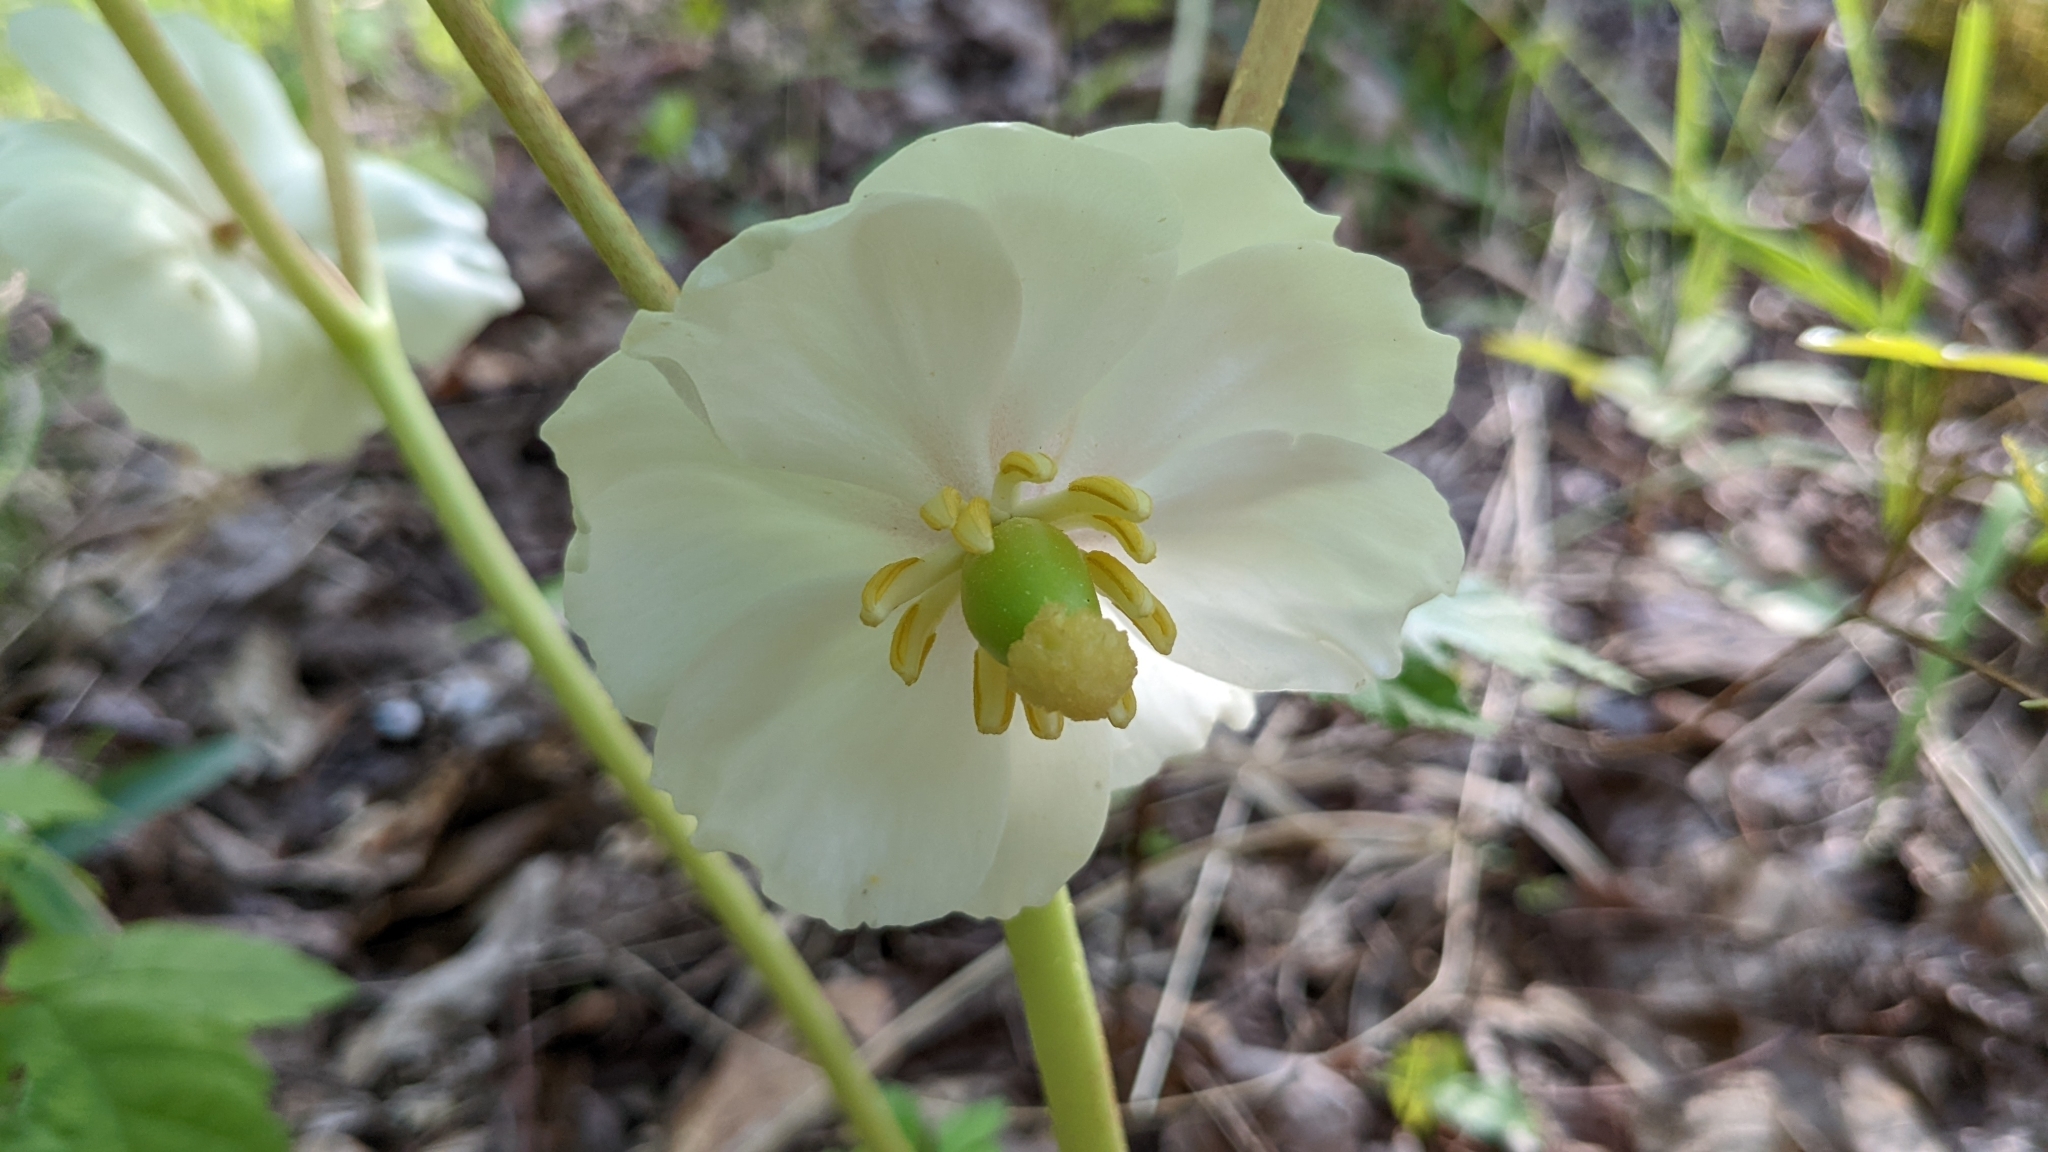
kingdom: Plantae
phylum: Tracheophyta
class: Magnoliopsida
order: Ranunculales
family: Berberidaceae
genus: Podophyllum
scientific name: Podophyllum peltatum
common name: Wild mandrake
